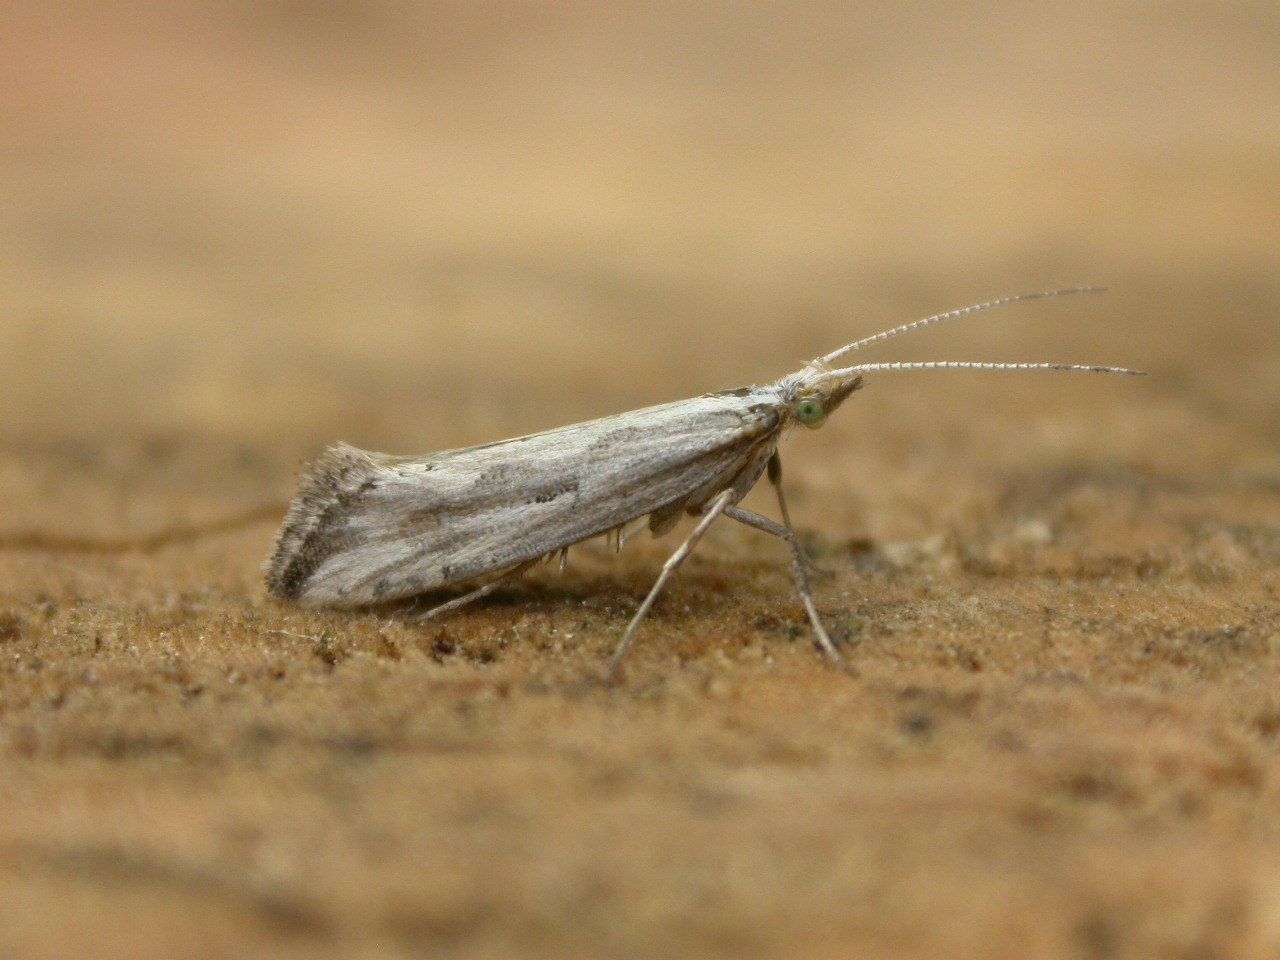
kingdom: Animalia
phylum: Arthropoda
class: Insecta
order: Lepidoptera
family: Plutellidae
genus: Plutella
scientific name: Plutella porrectella
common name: Dame's rocket moth
